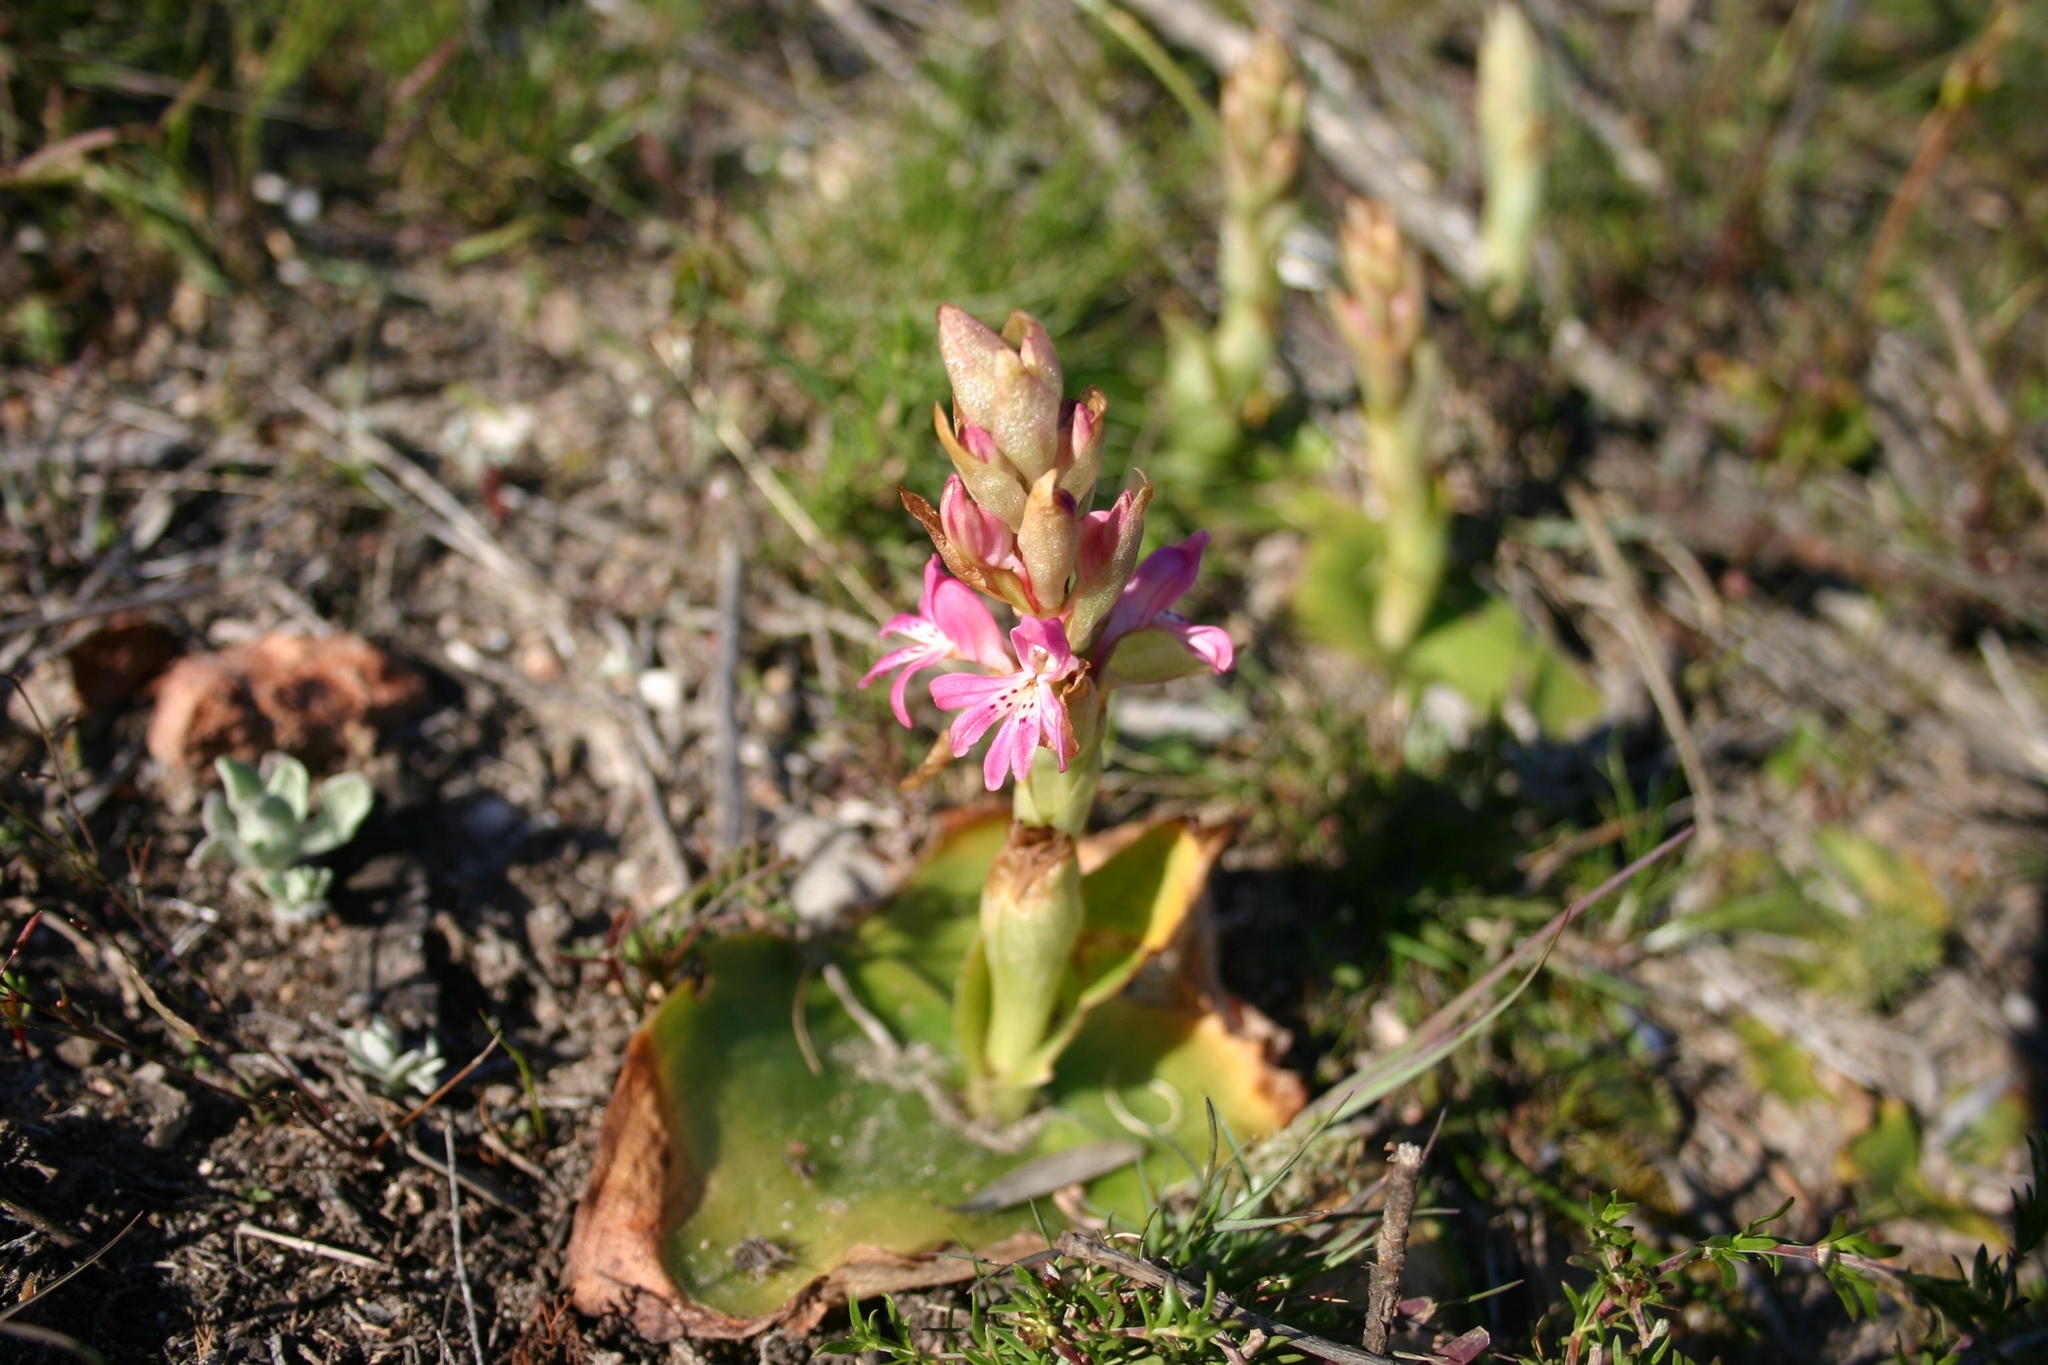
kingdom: Plantae
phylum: Tracheophyta
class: Liliopsida
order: Asparagales
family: Orchidaceae
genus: Satyrium
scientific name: Satyrium erectum
